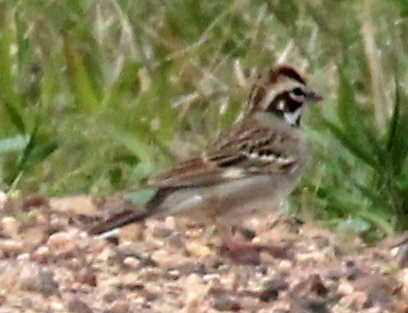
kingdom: Animalia
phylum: Chordata
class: Aves
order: Passeriformes
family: Passerellidae
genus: Chondestes
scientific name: Chondestes grammacus
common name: Lark sparrow
